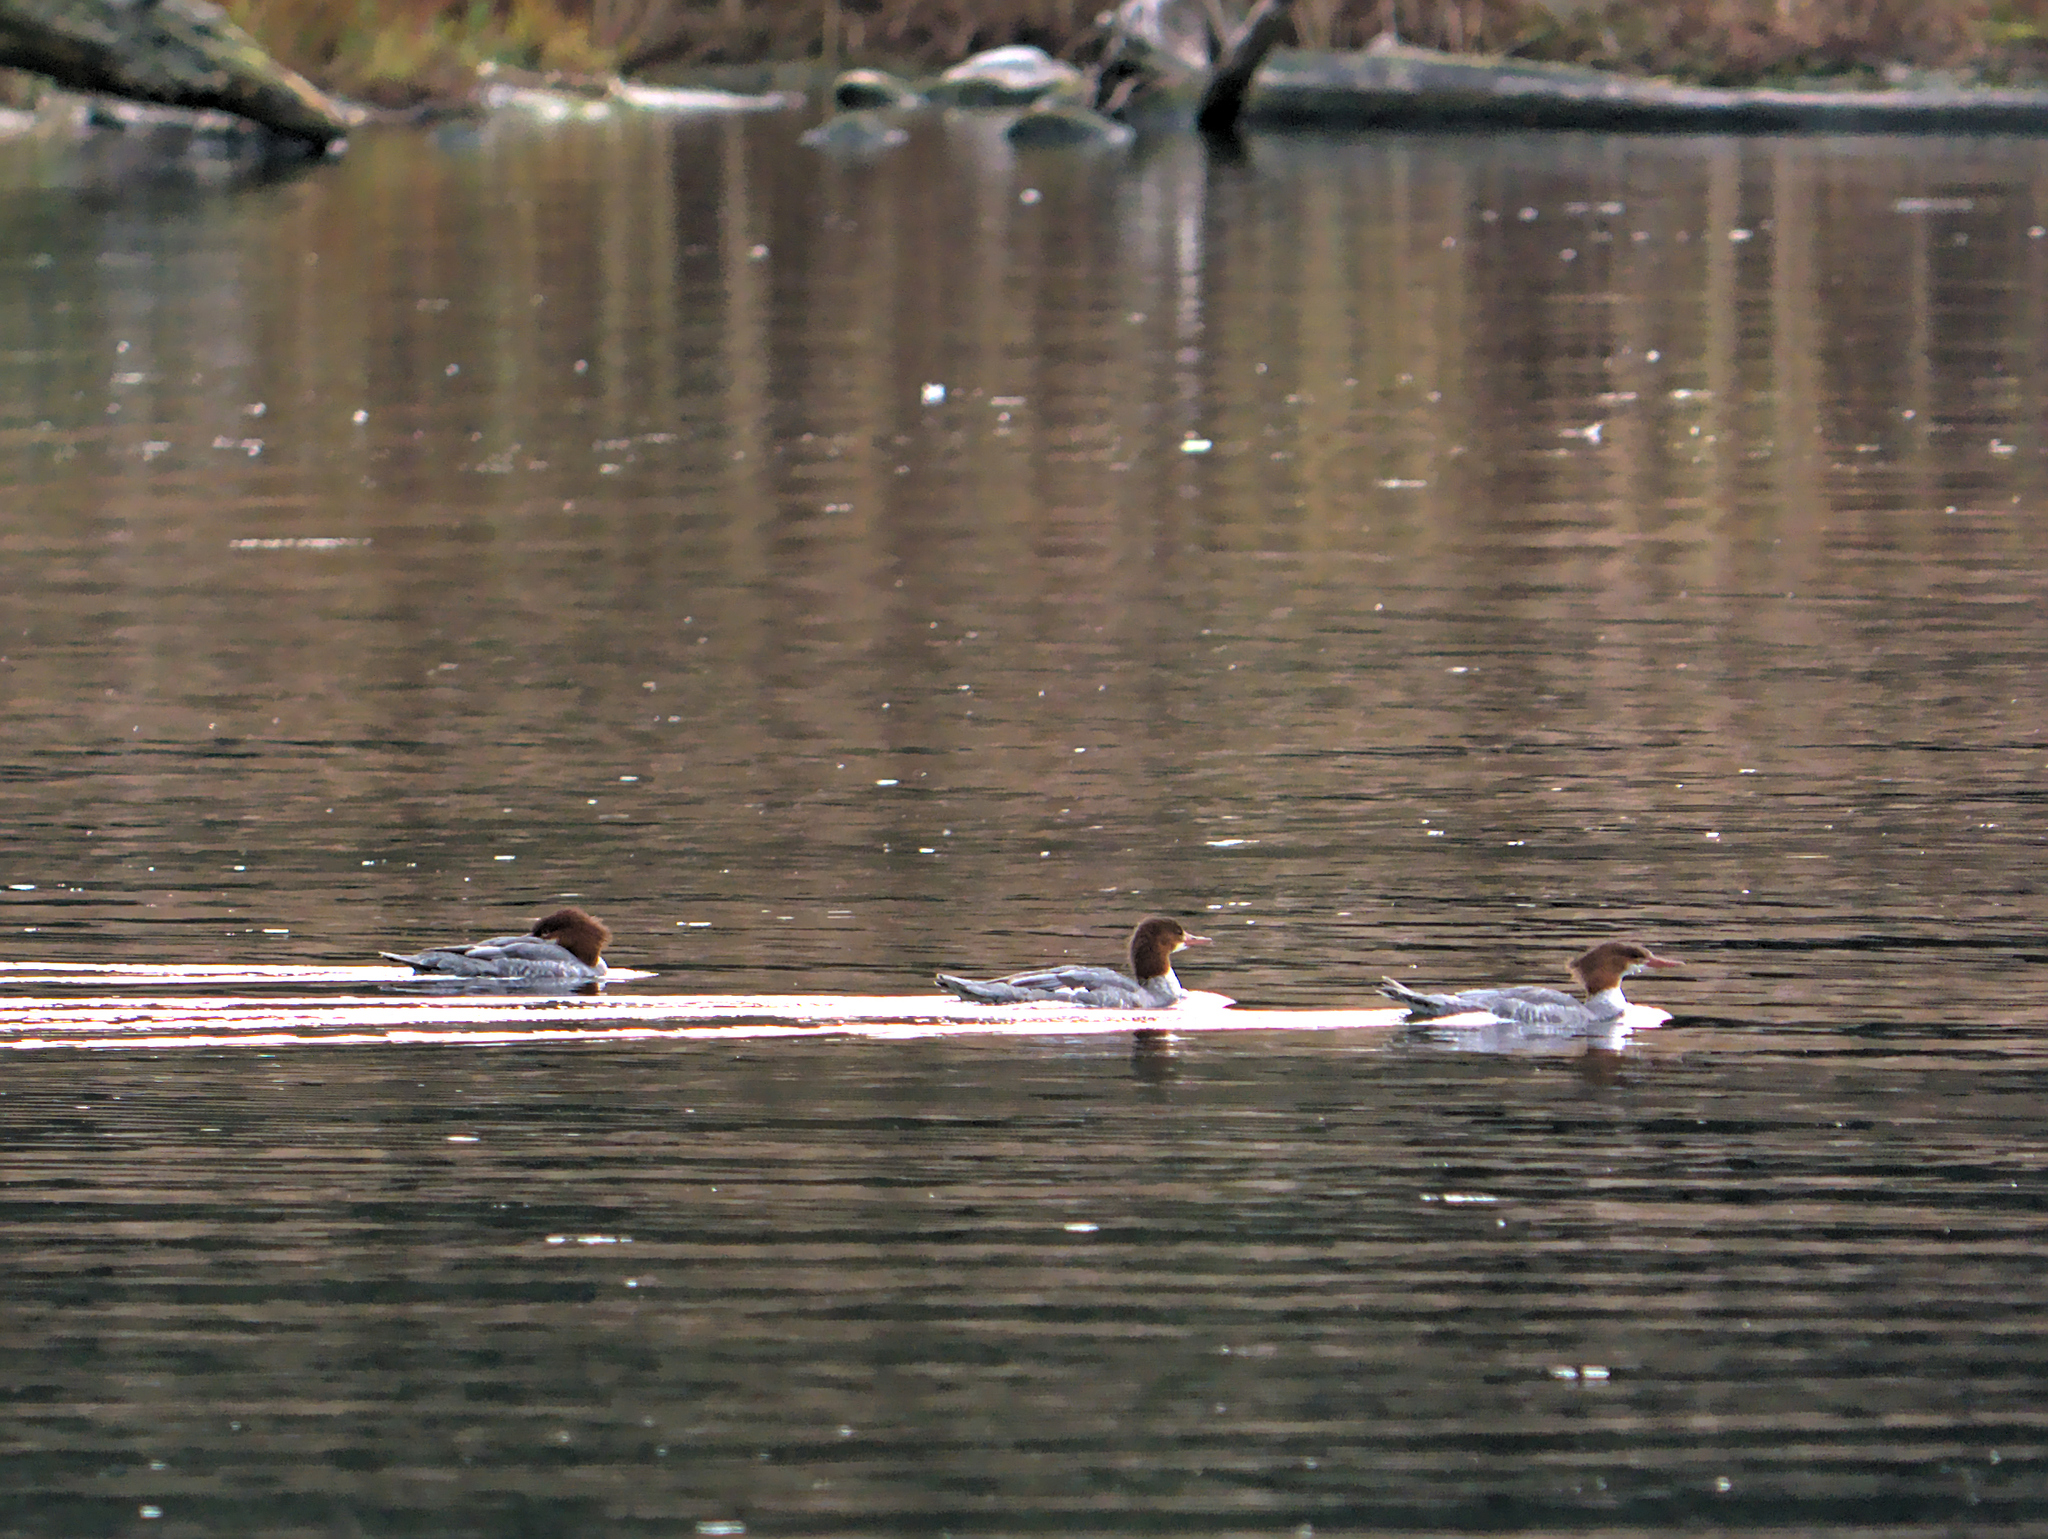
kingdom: Animalia
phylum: Chordata
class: Aves
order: Anseriformes
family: Anatidae
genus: Mergus
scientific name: Mergus merganser
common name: Common merganser
